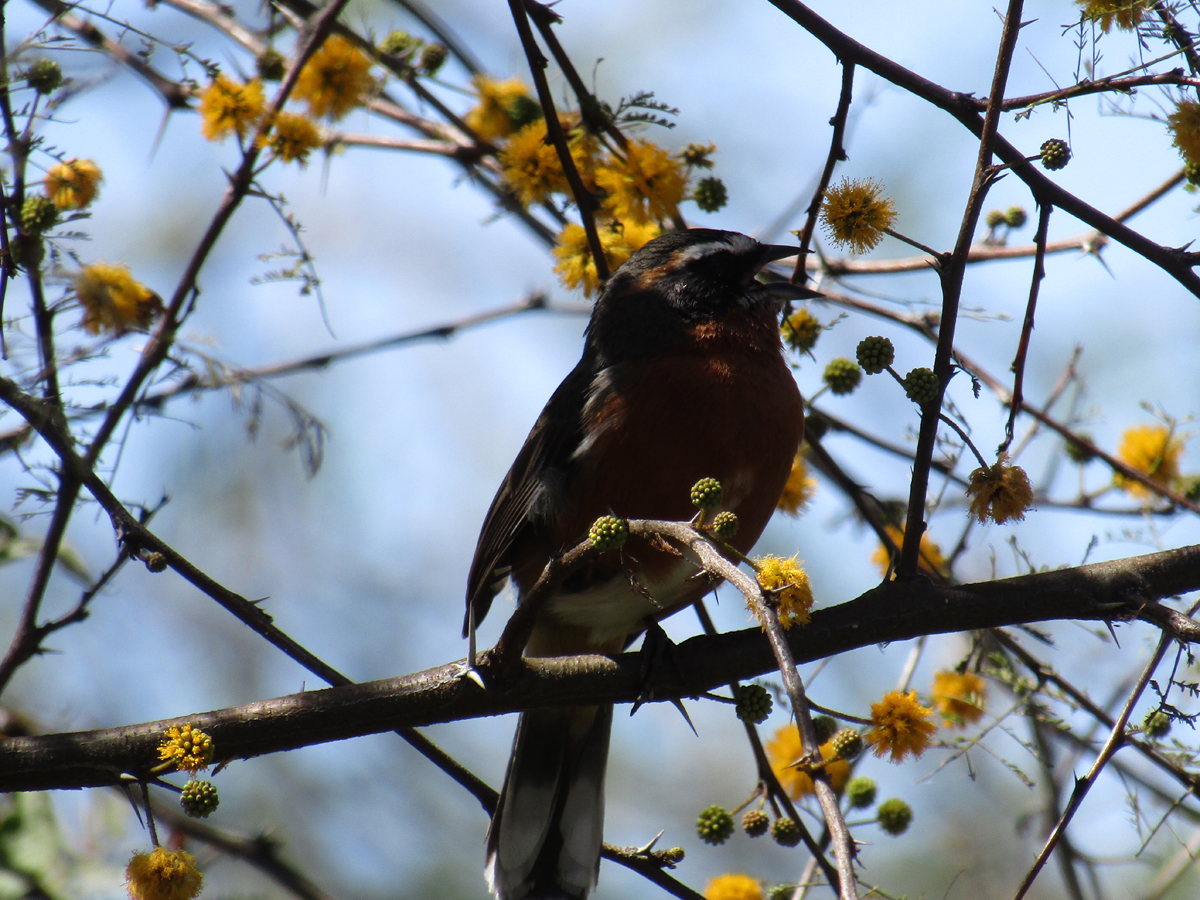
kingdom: Animalia
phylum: Chordata
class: Aves
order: Passeriformes
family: Thraupidae
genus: Poospiza
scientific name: Poospiza nigrorufa
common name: Black-and-rufous warbling finch
